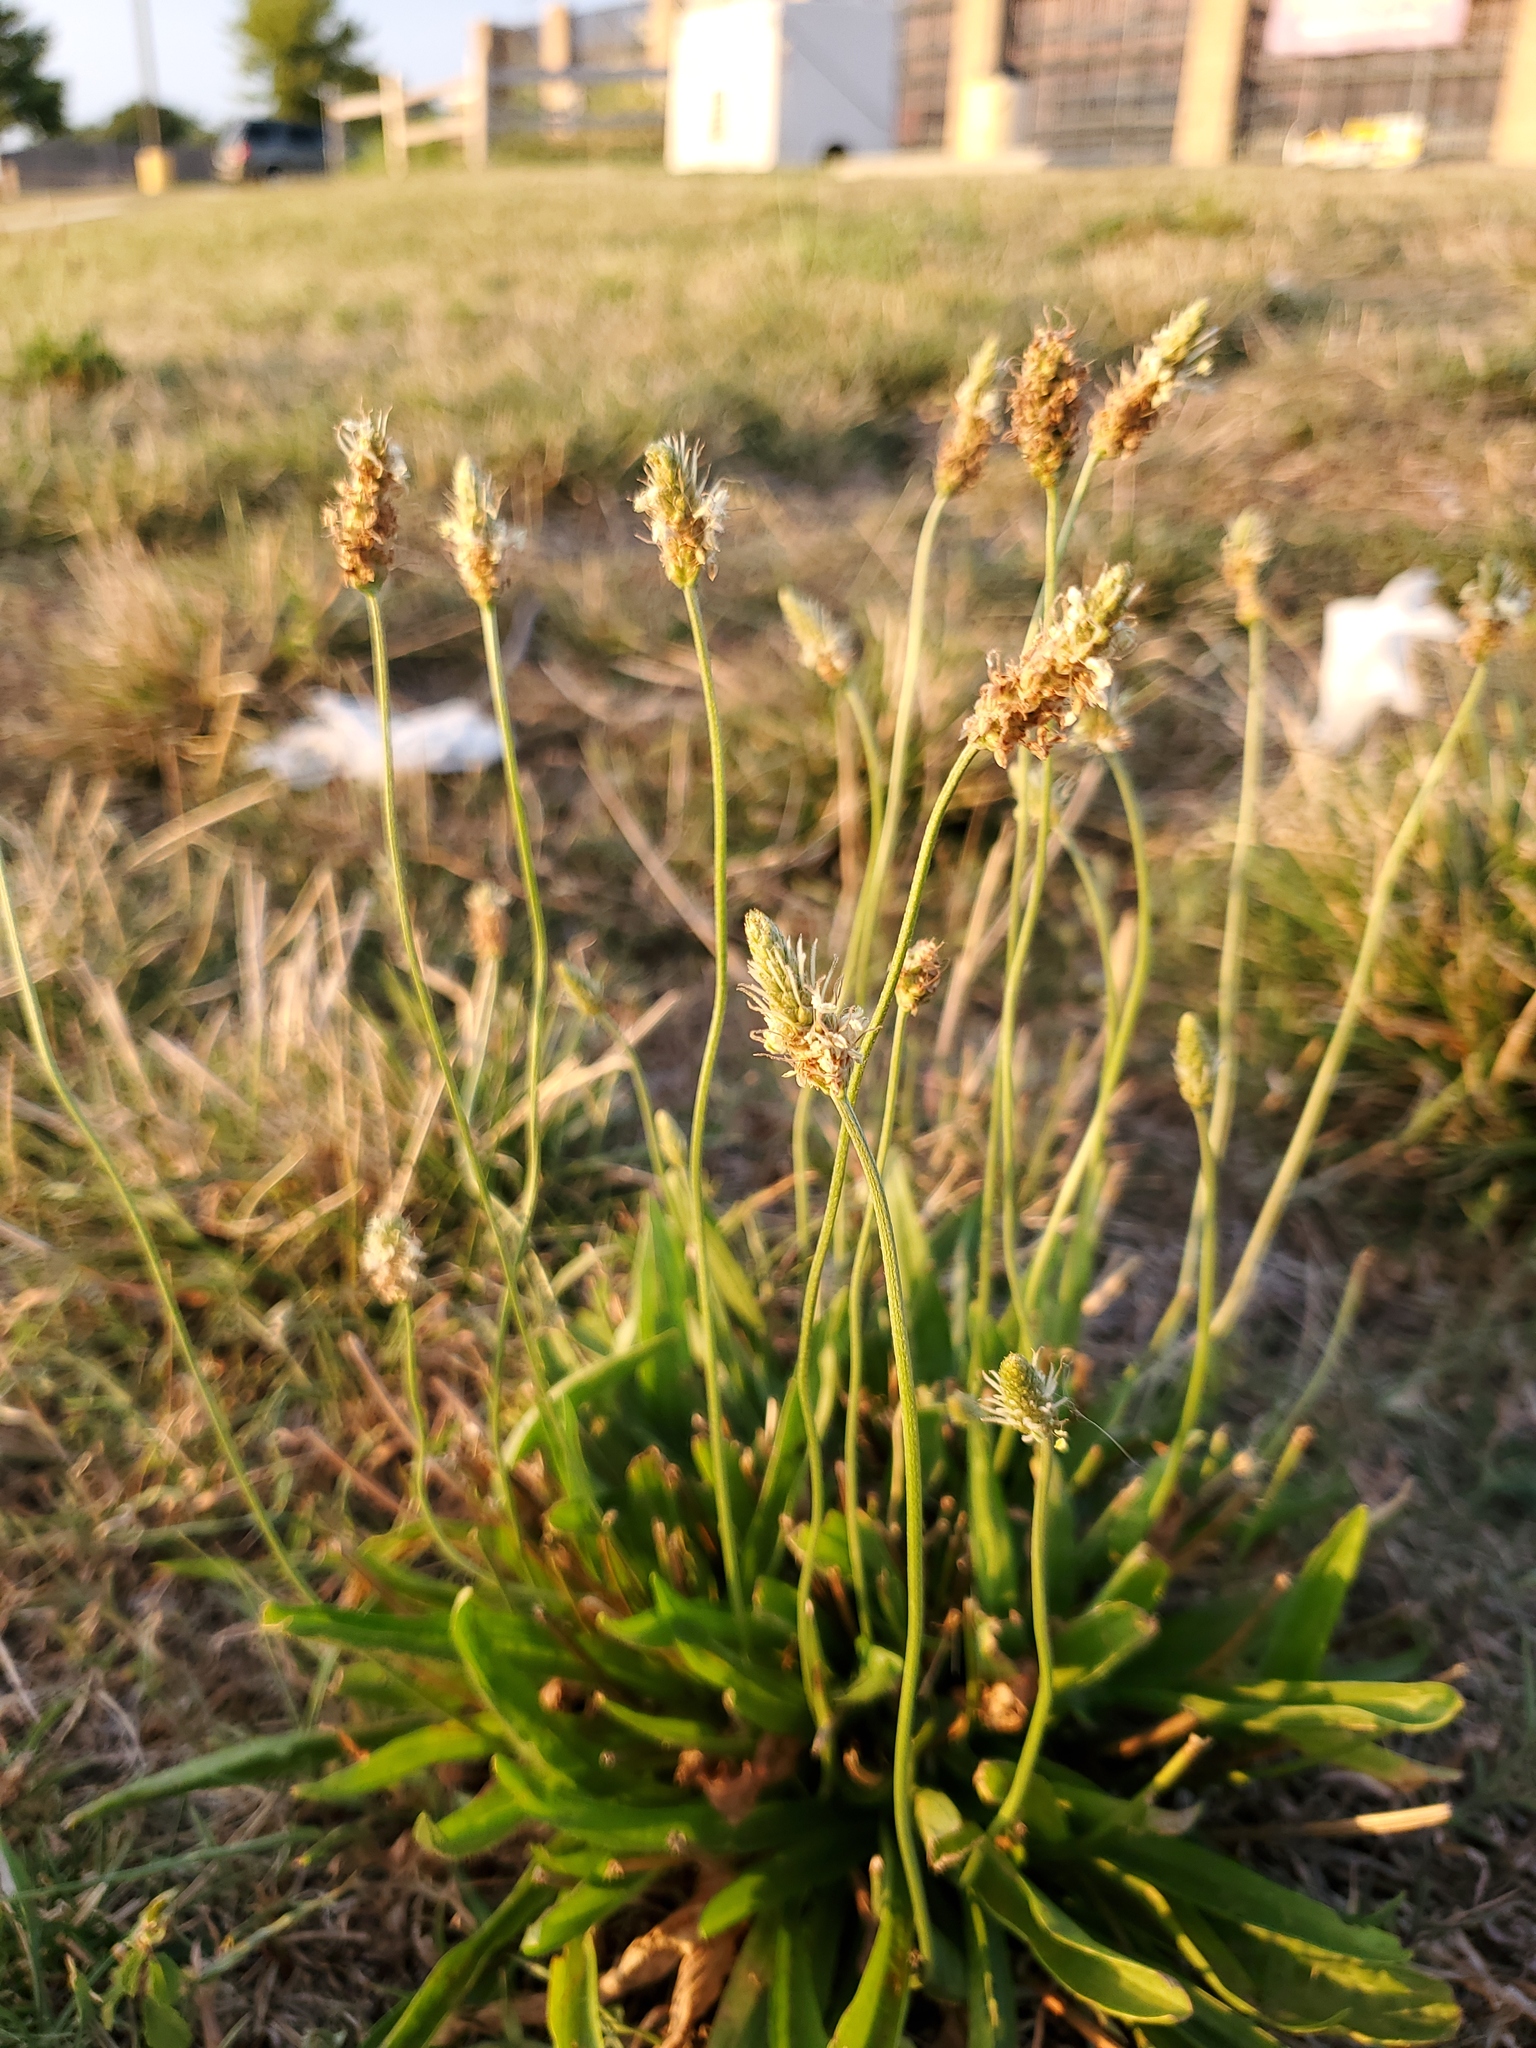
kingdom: Plantae
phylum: Tracheophyta
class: Magnoliopsida
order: Lamiales
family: Plantaginaceae
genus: Plantago
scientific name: Plantago lanceolata
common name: Ribwort plantain
